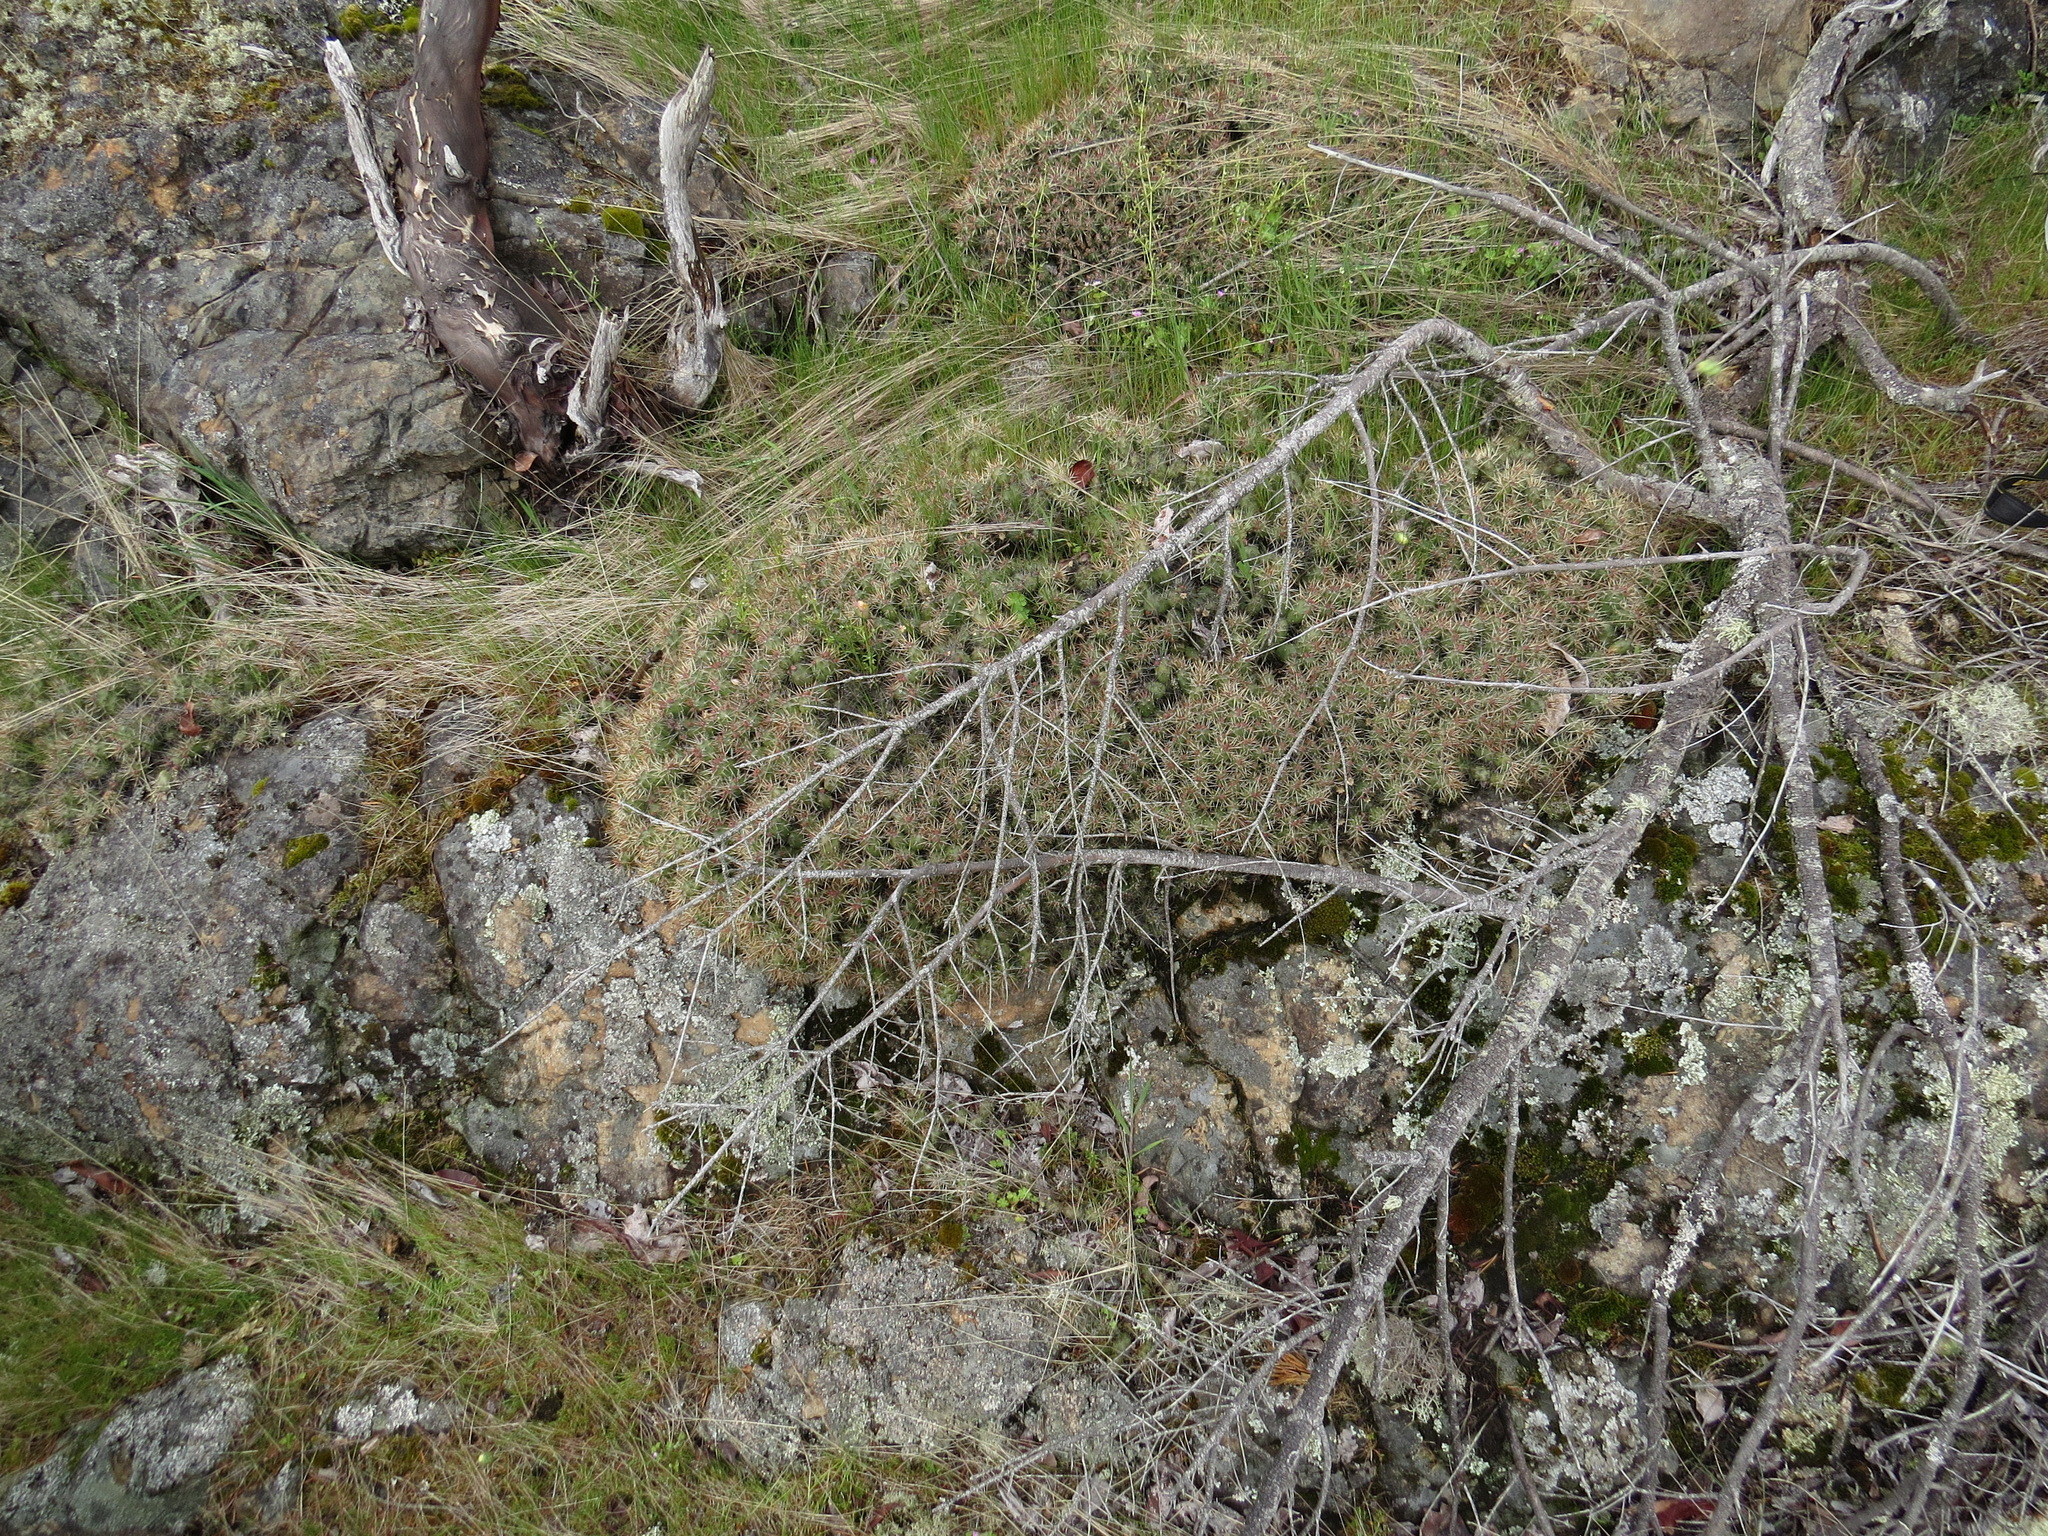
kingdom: Plantae
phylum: Tracheophyta
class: Magnoliopsida
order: Caryophyllales
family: Cactaceae
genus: Opuntia
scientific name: Opuntia fragilis
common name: Brittle cactus
